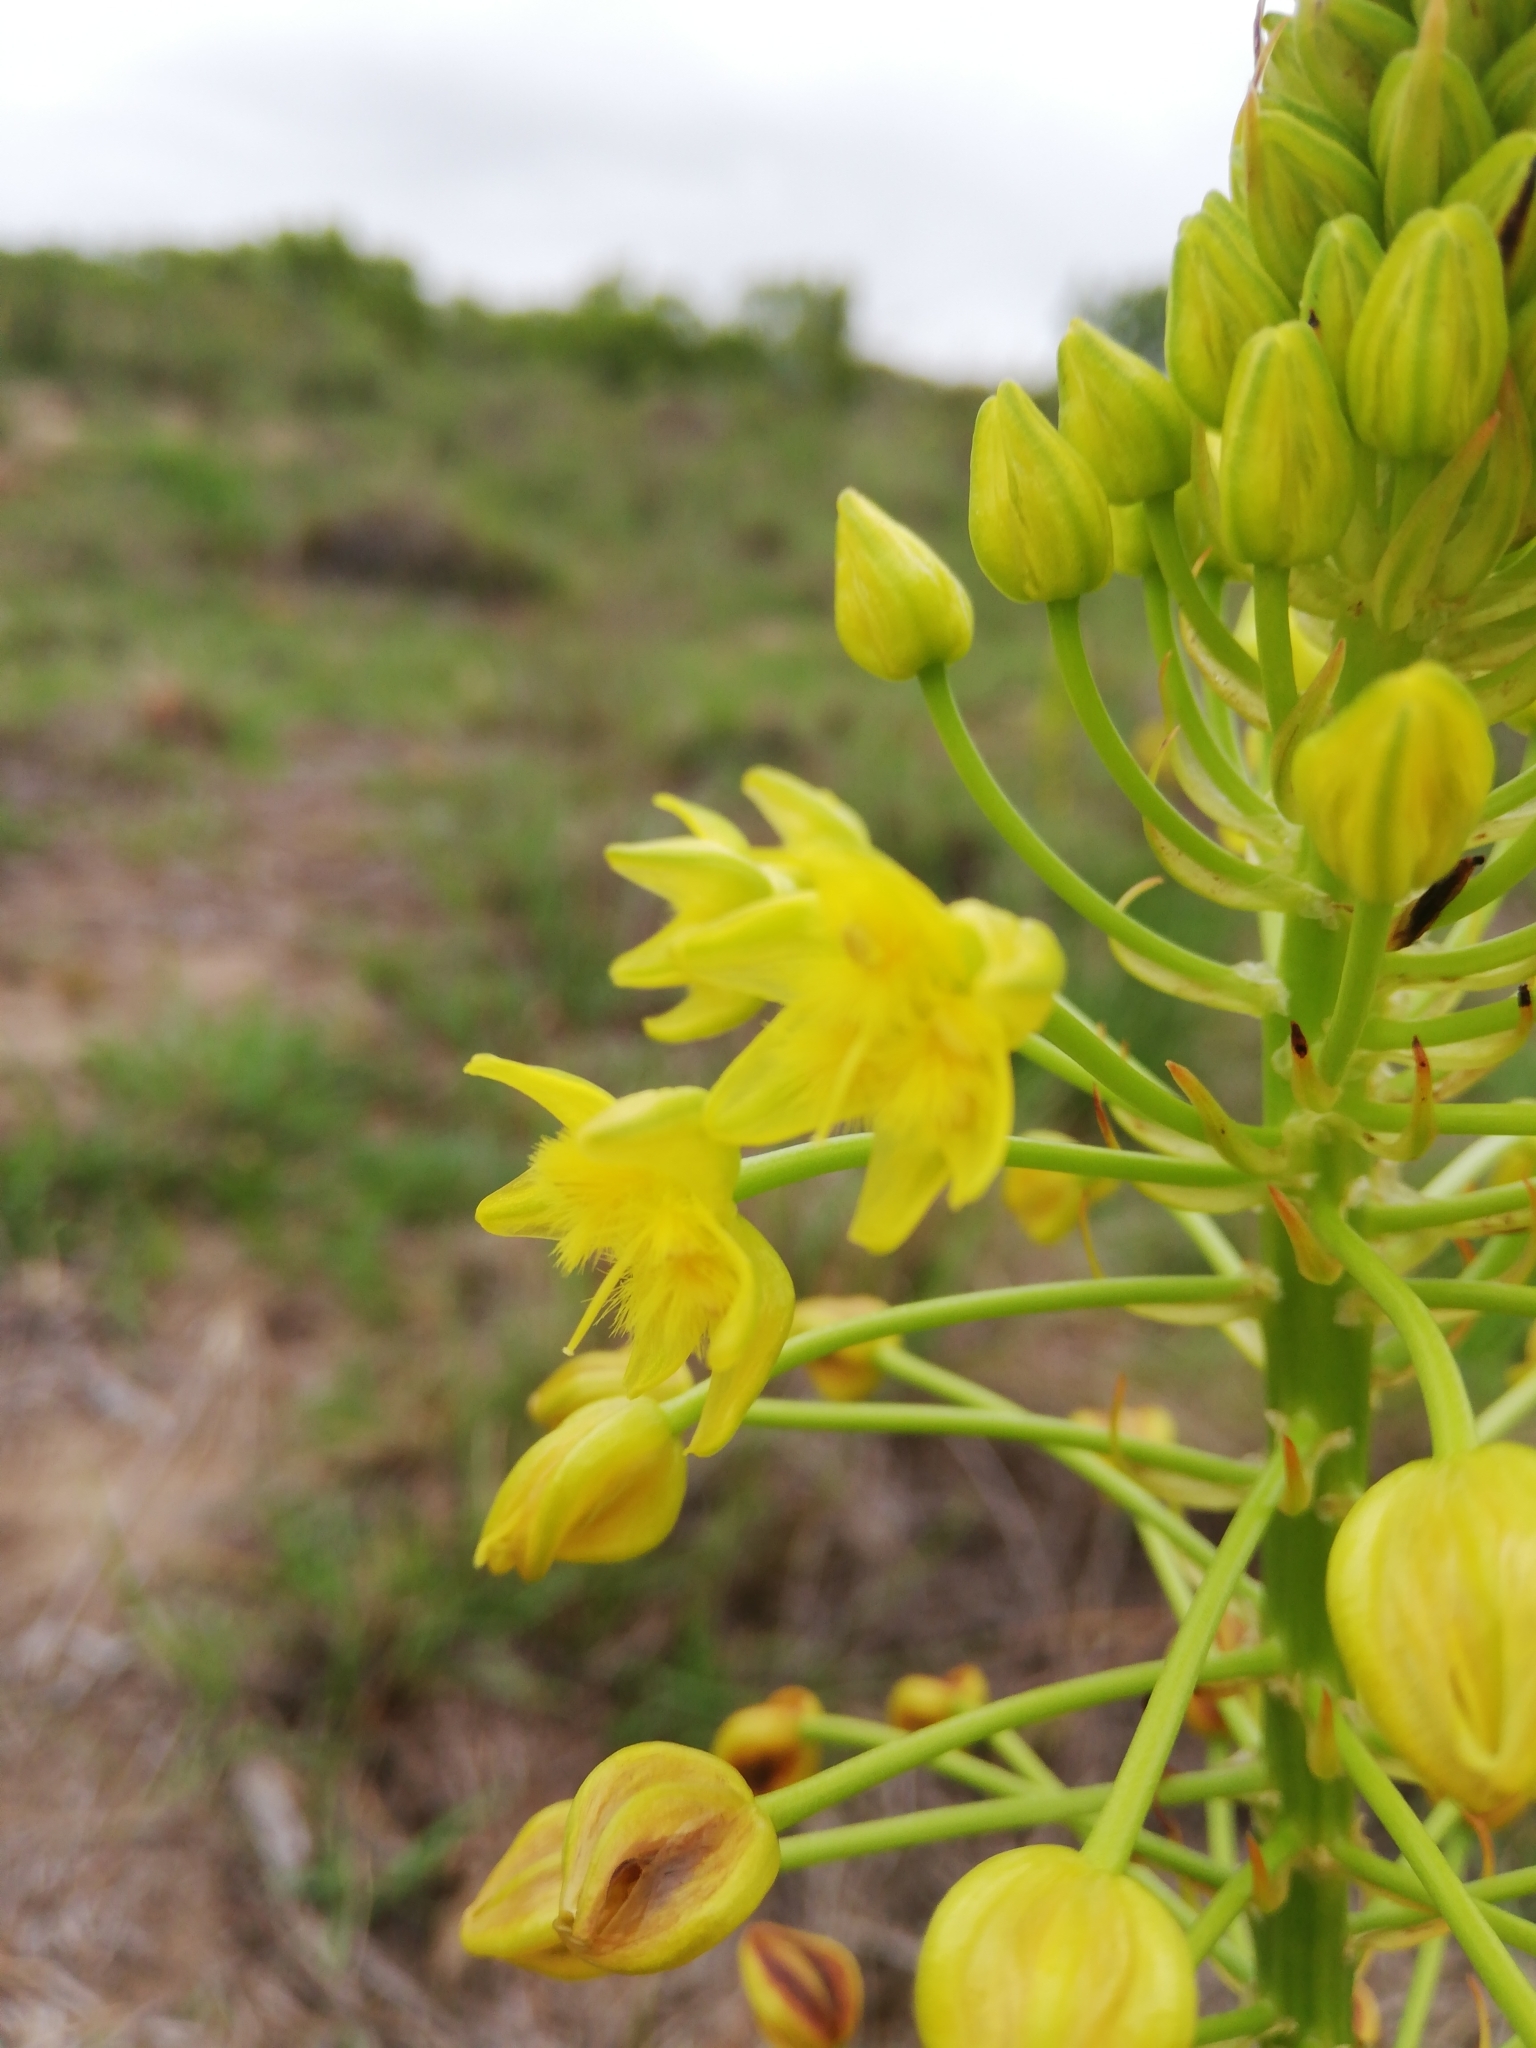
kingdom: Plantae
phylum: Tracheophyta
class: Liliopsida
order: Asparagales
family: Asphodelaceae
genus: Bulbine
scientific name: Bulbine abyssinica
